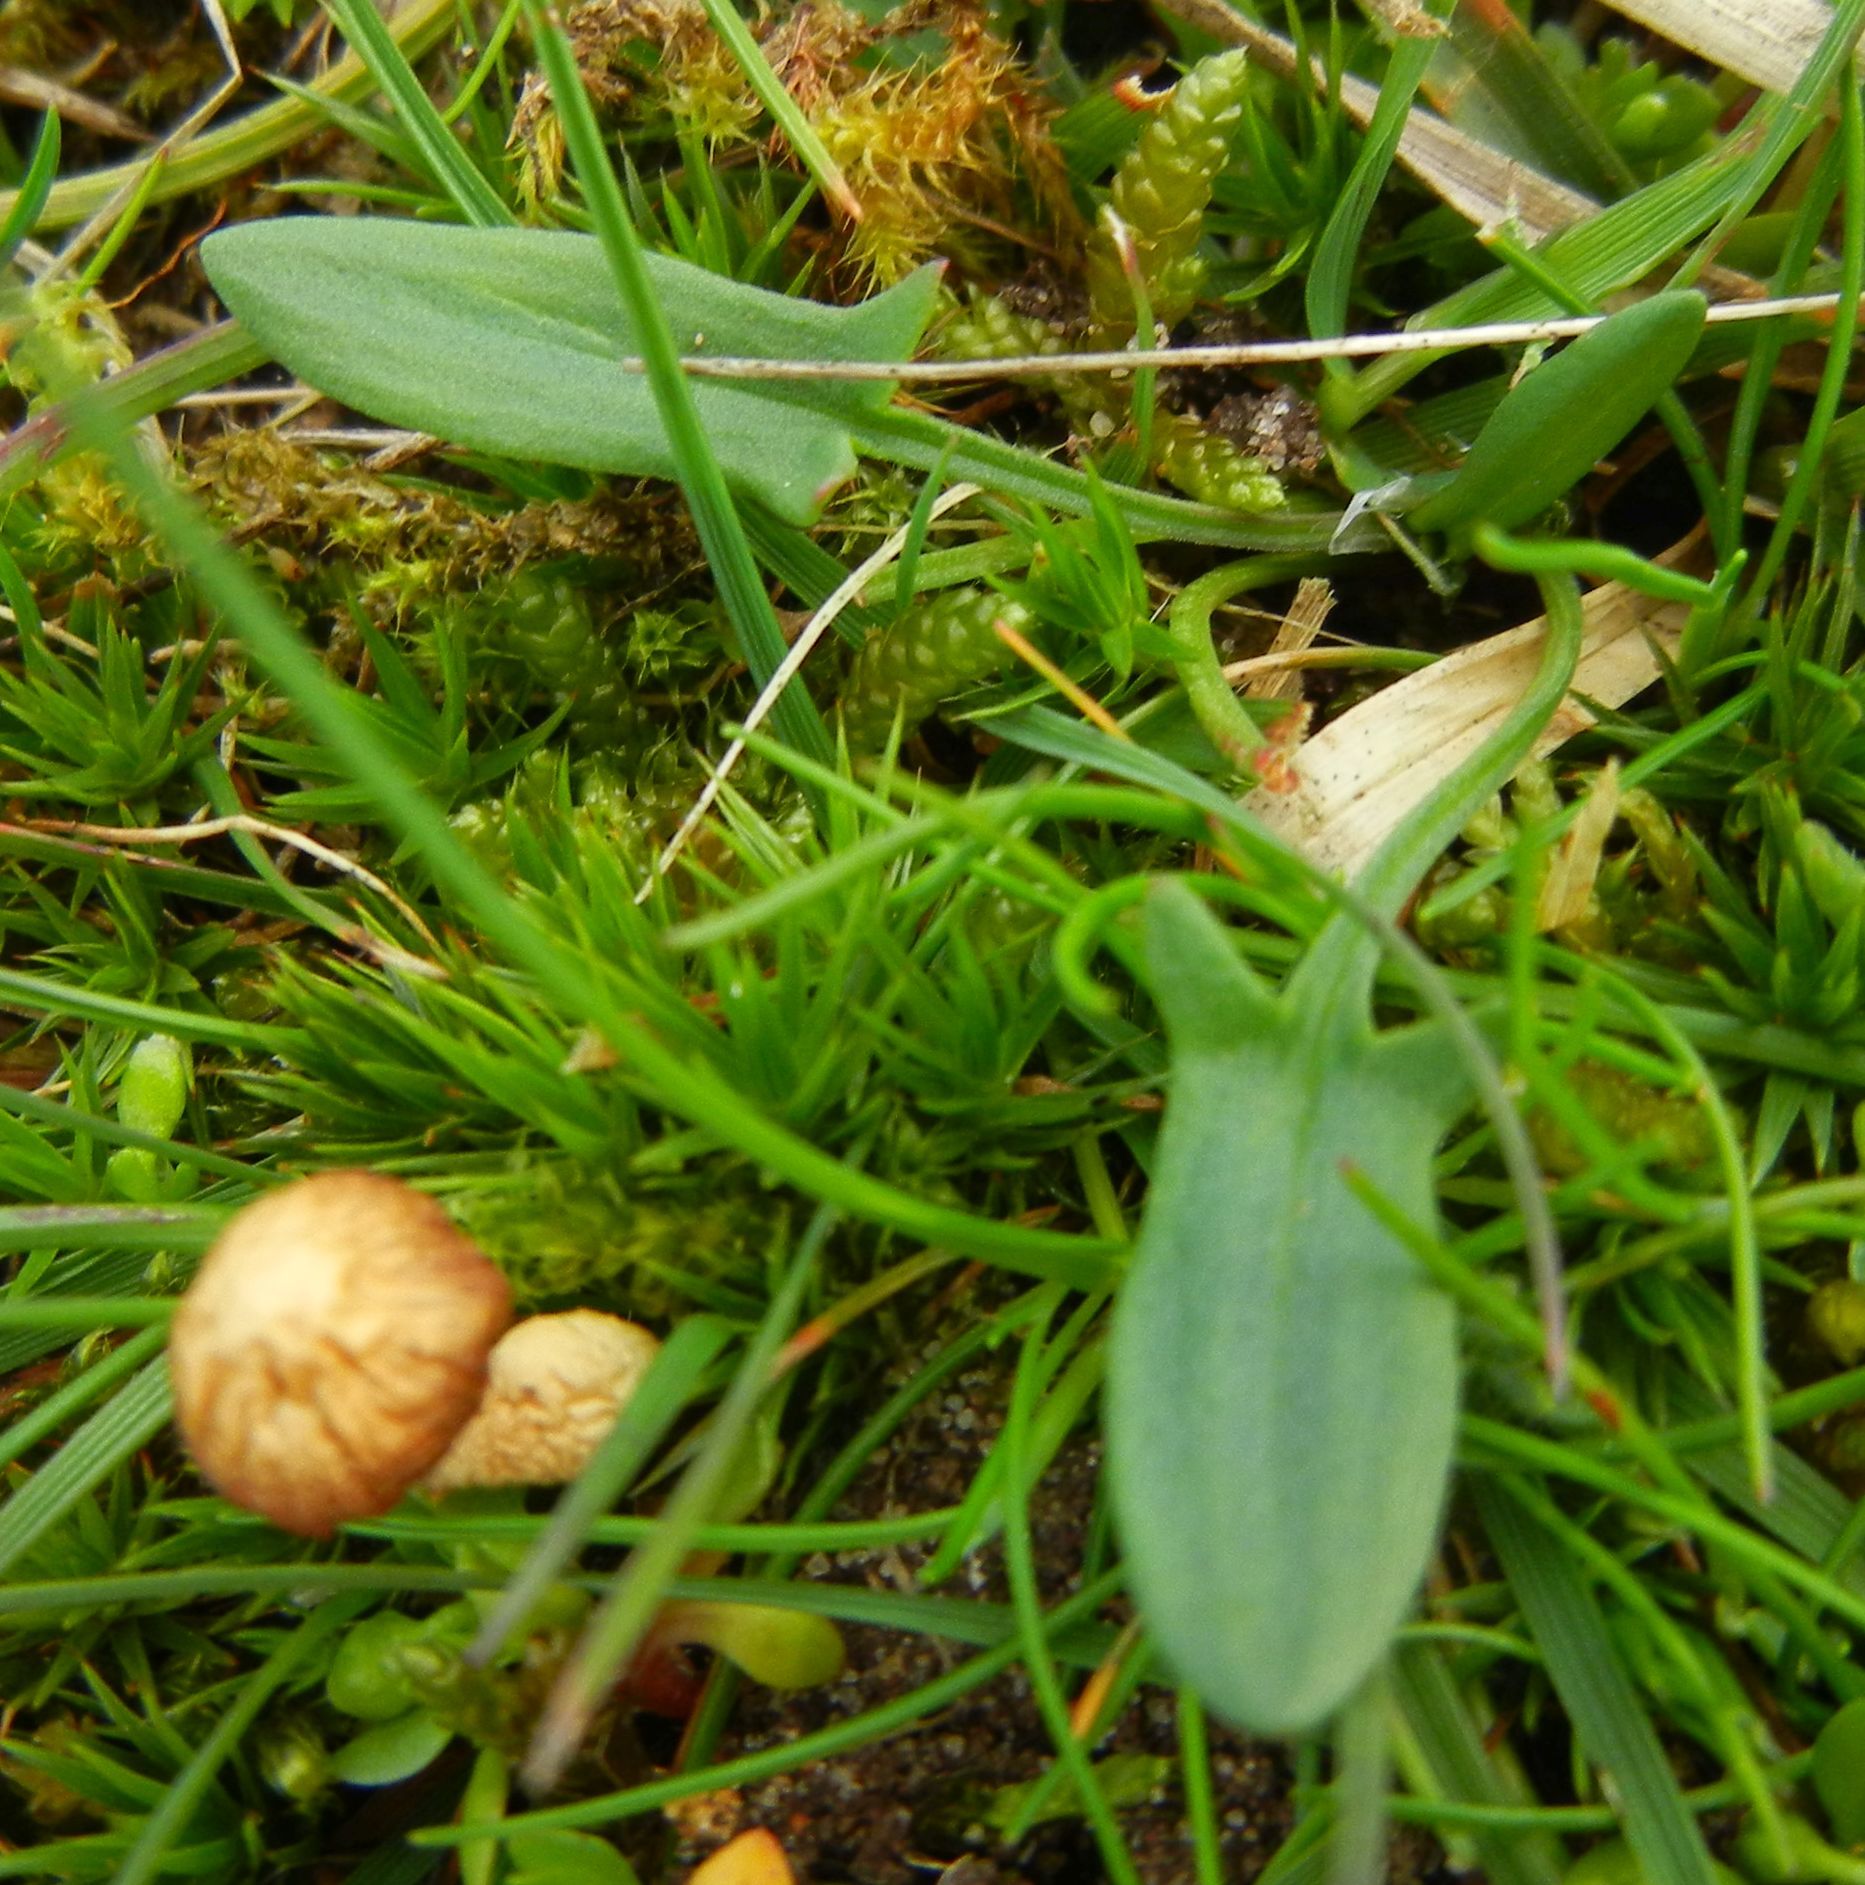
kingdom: Plantae
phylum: Tracheophyta
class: Magnoliopsida
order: Caryophyllales
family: Polygonaceae
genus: Rumex
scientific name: Rumex acetosella
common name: Common sheep sorrel
